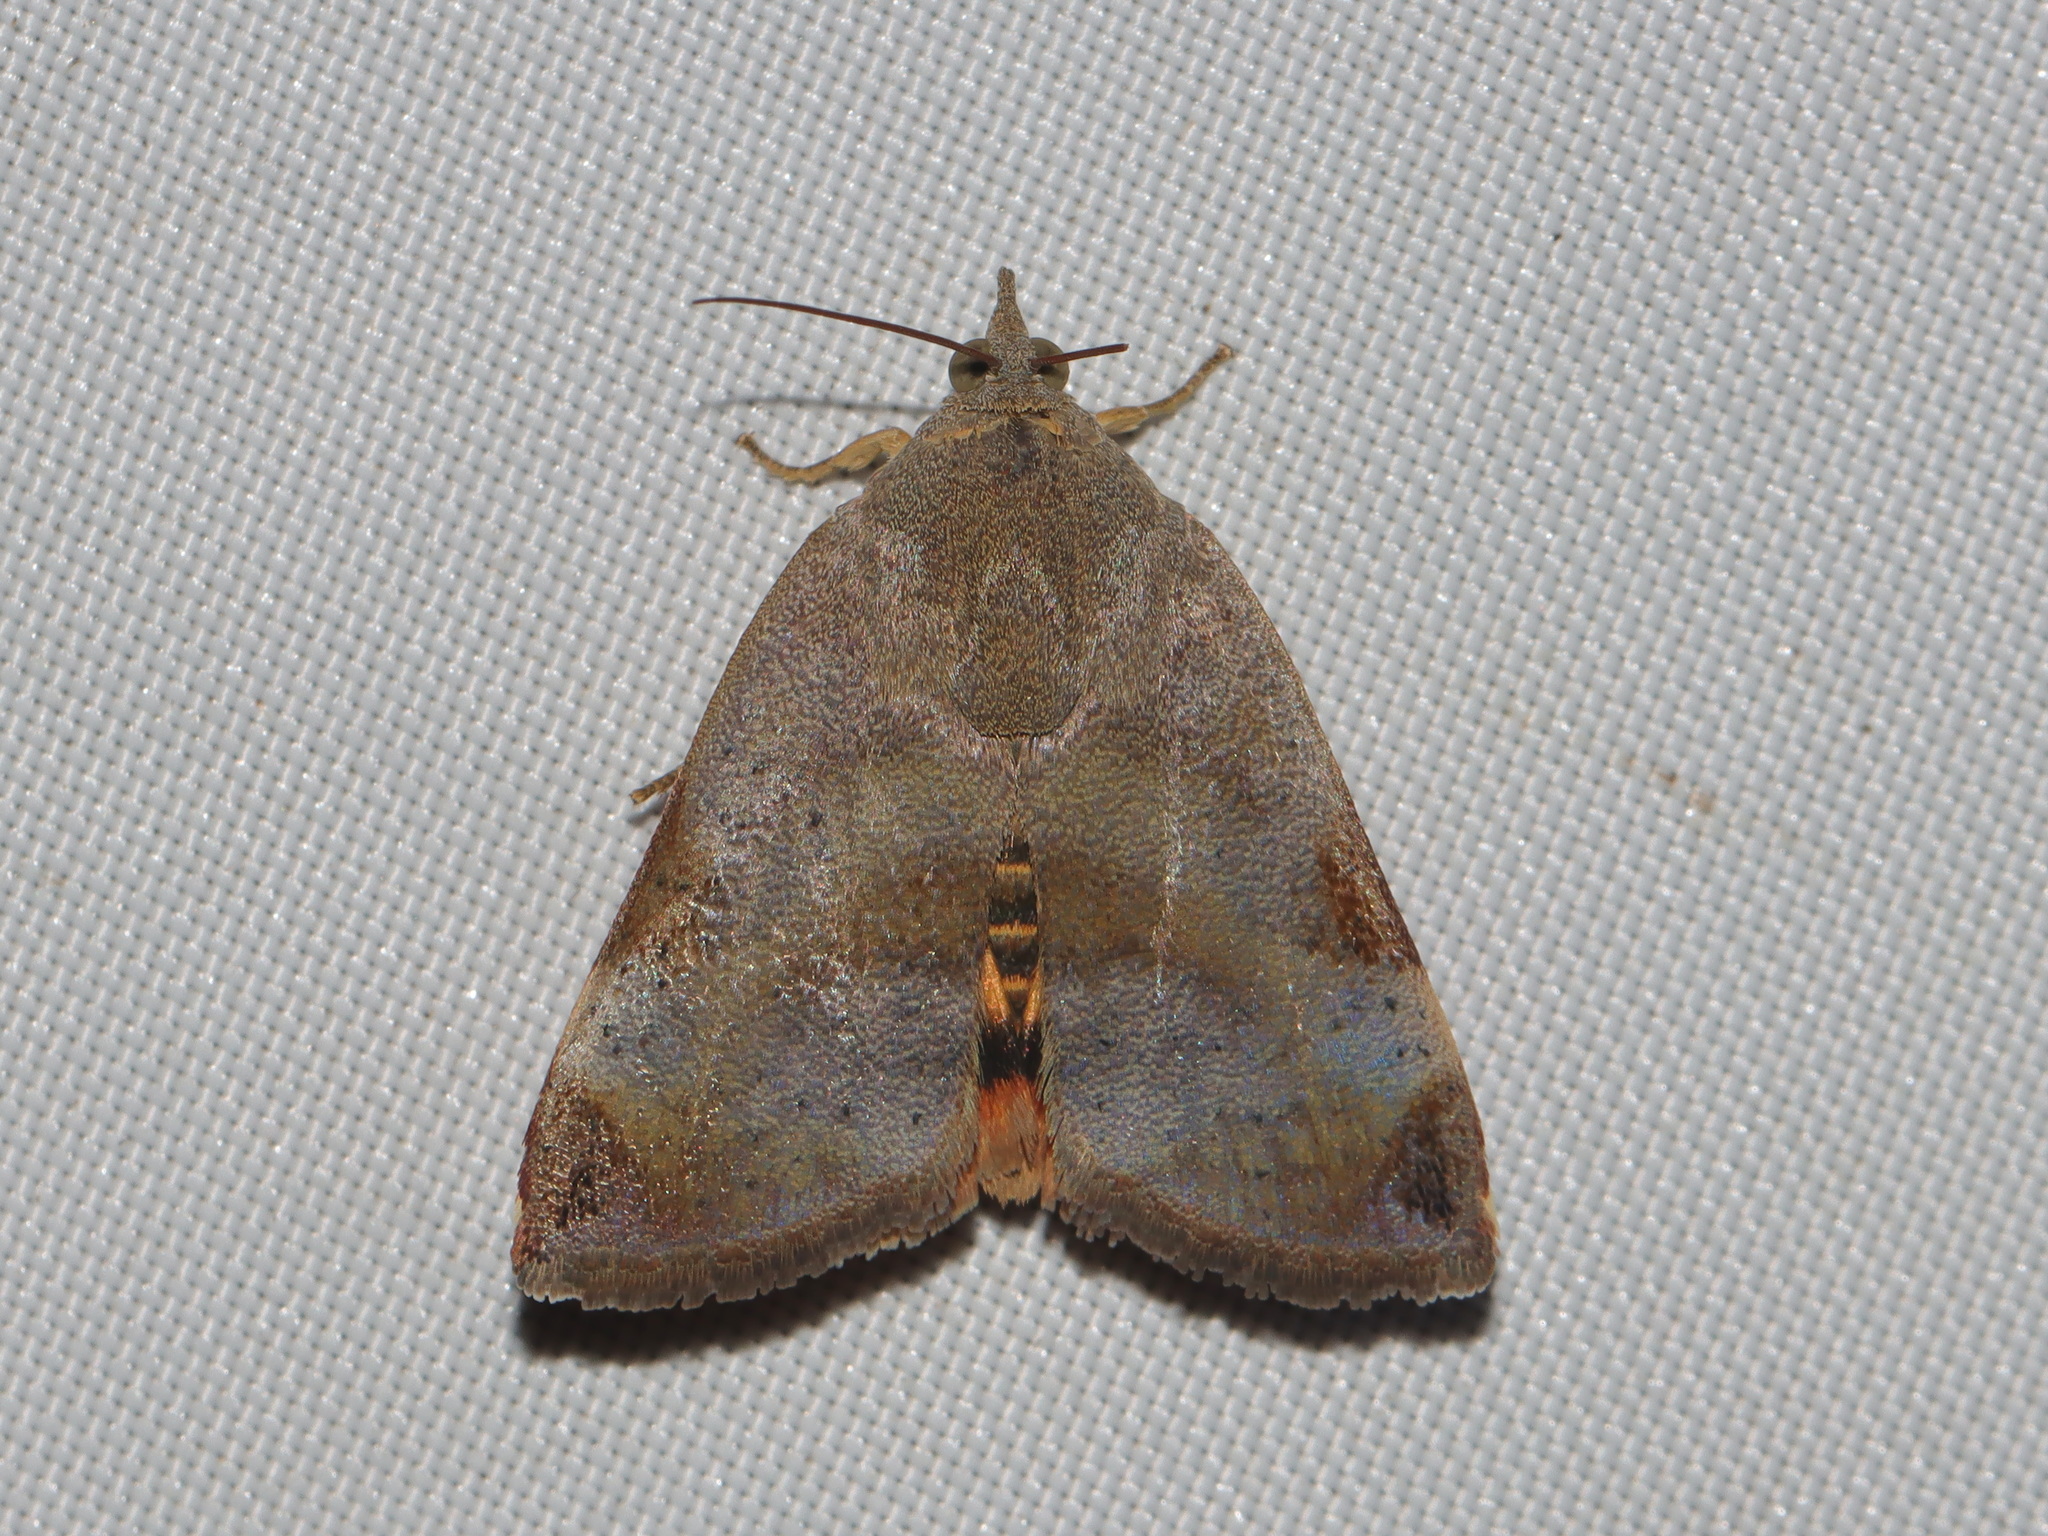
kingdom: Animalia
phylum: Arthropoda
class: Insecta
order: Lepidoptera
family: Hyblaeidae
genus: Hyblaea
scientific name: Hyblaea puera
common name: Teak defoliator moth
